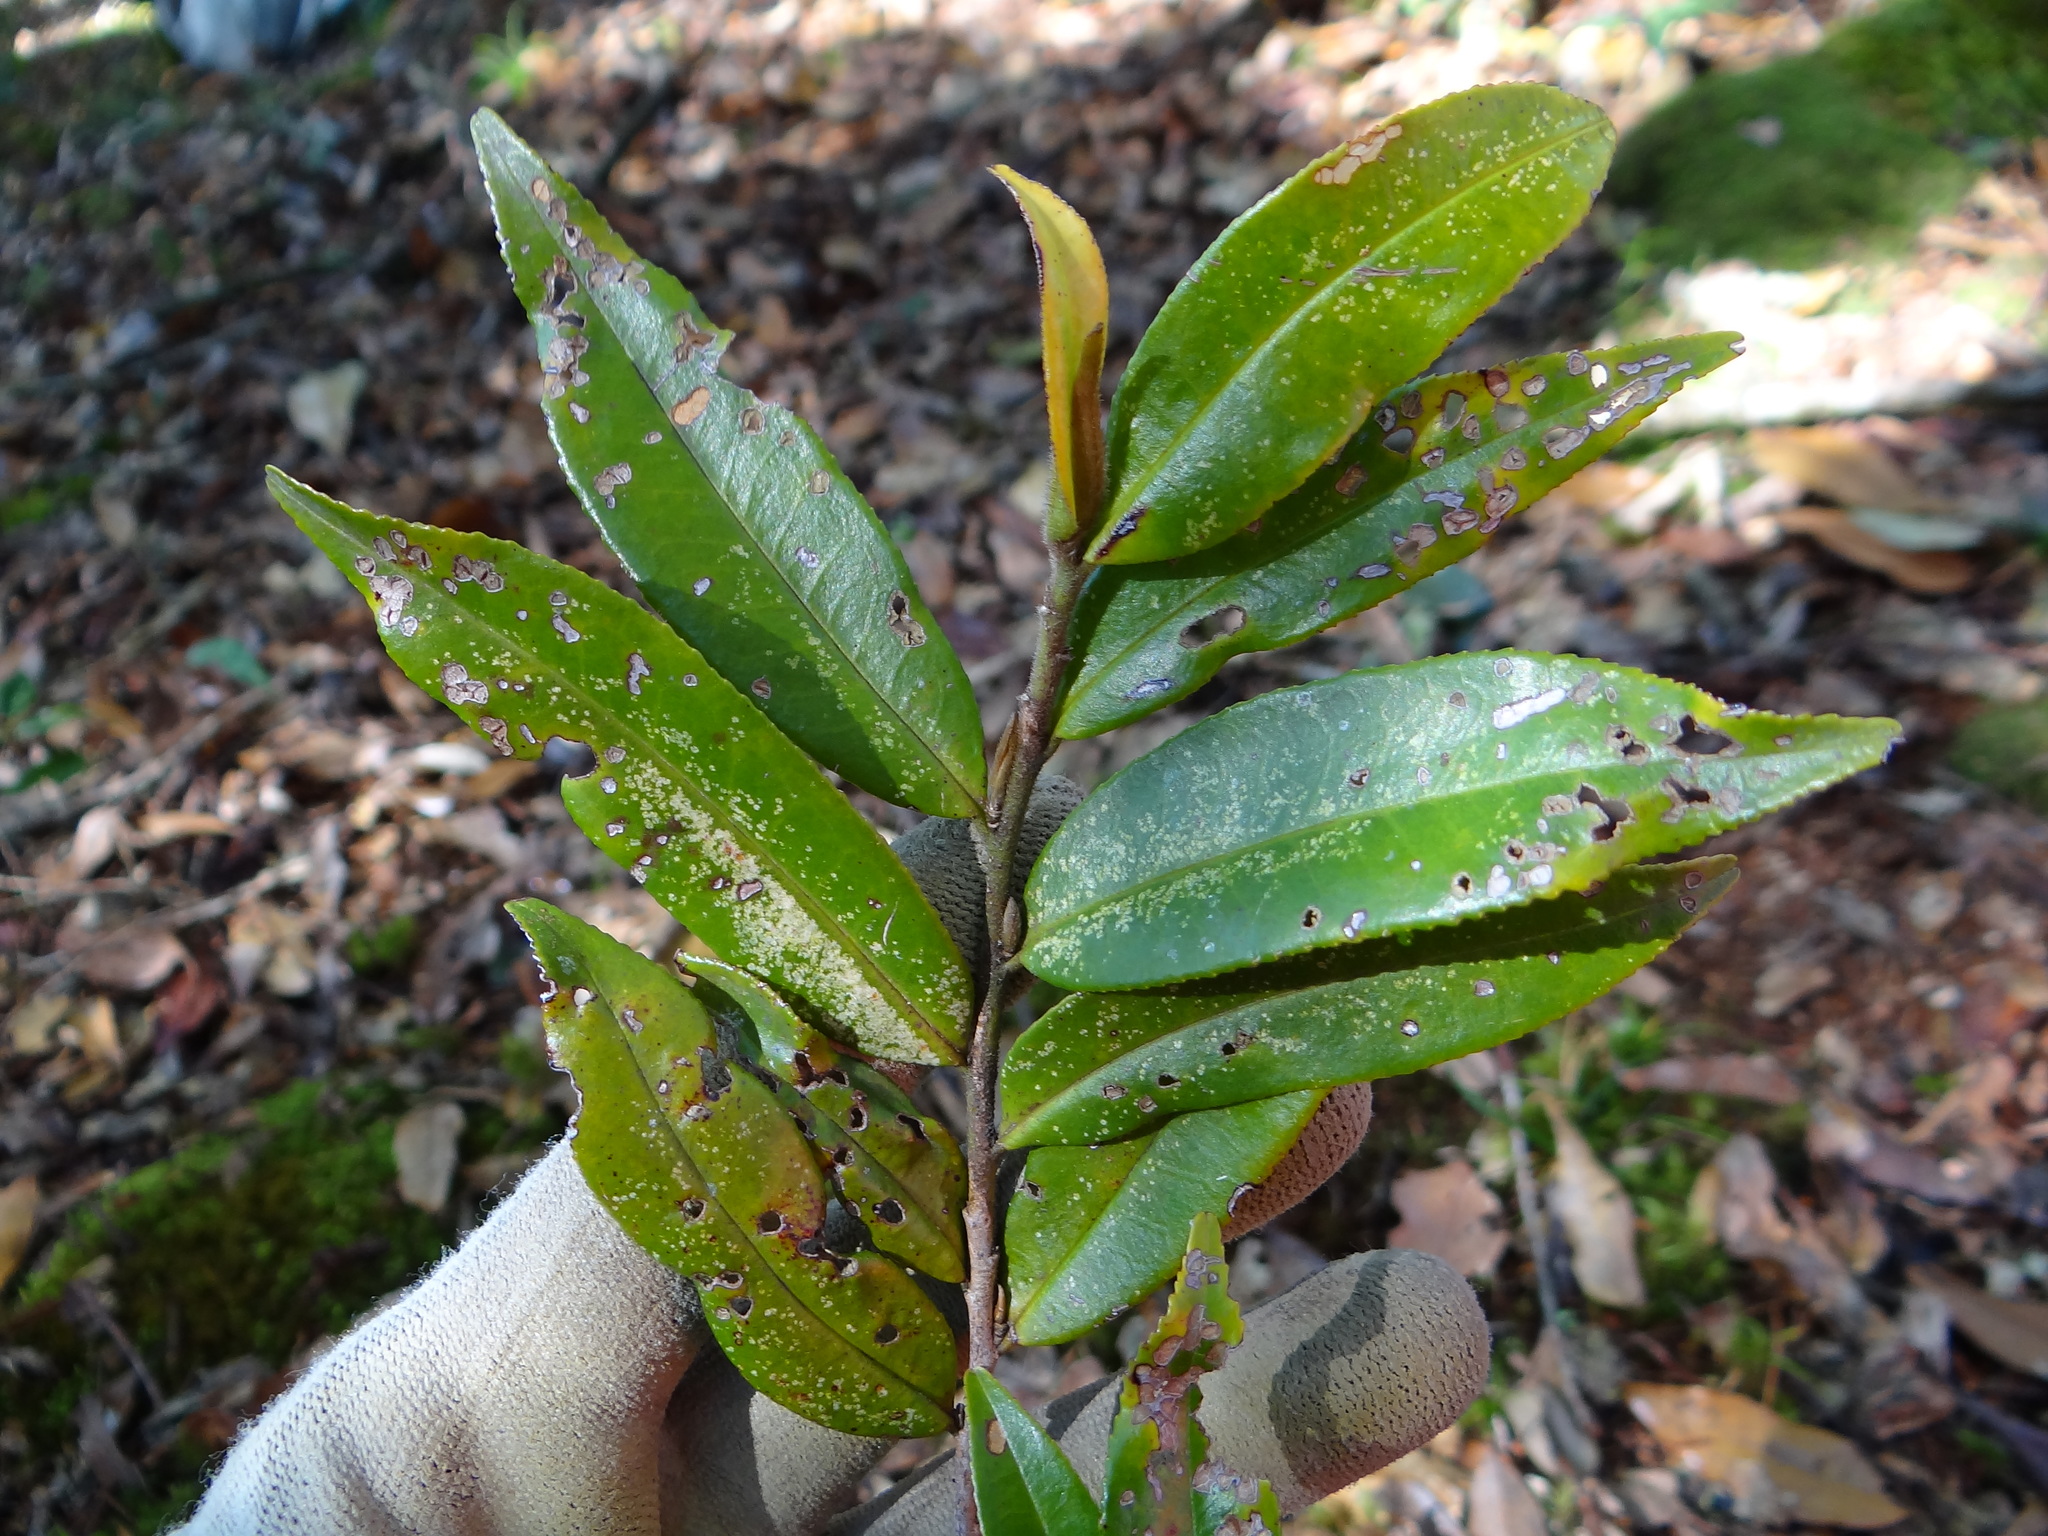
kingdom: Plantae
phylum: Tracheophyta
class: Magnoliopsida
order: Ericales
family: Pentaphylacaceae
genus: Eurya
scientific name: Eurya strigillosa
